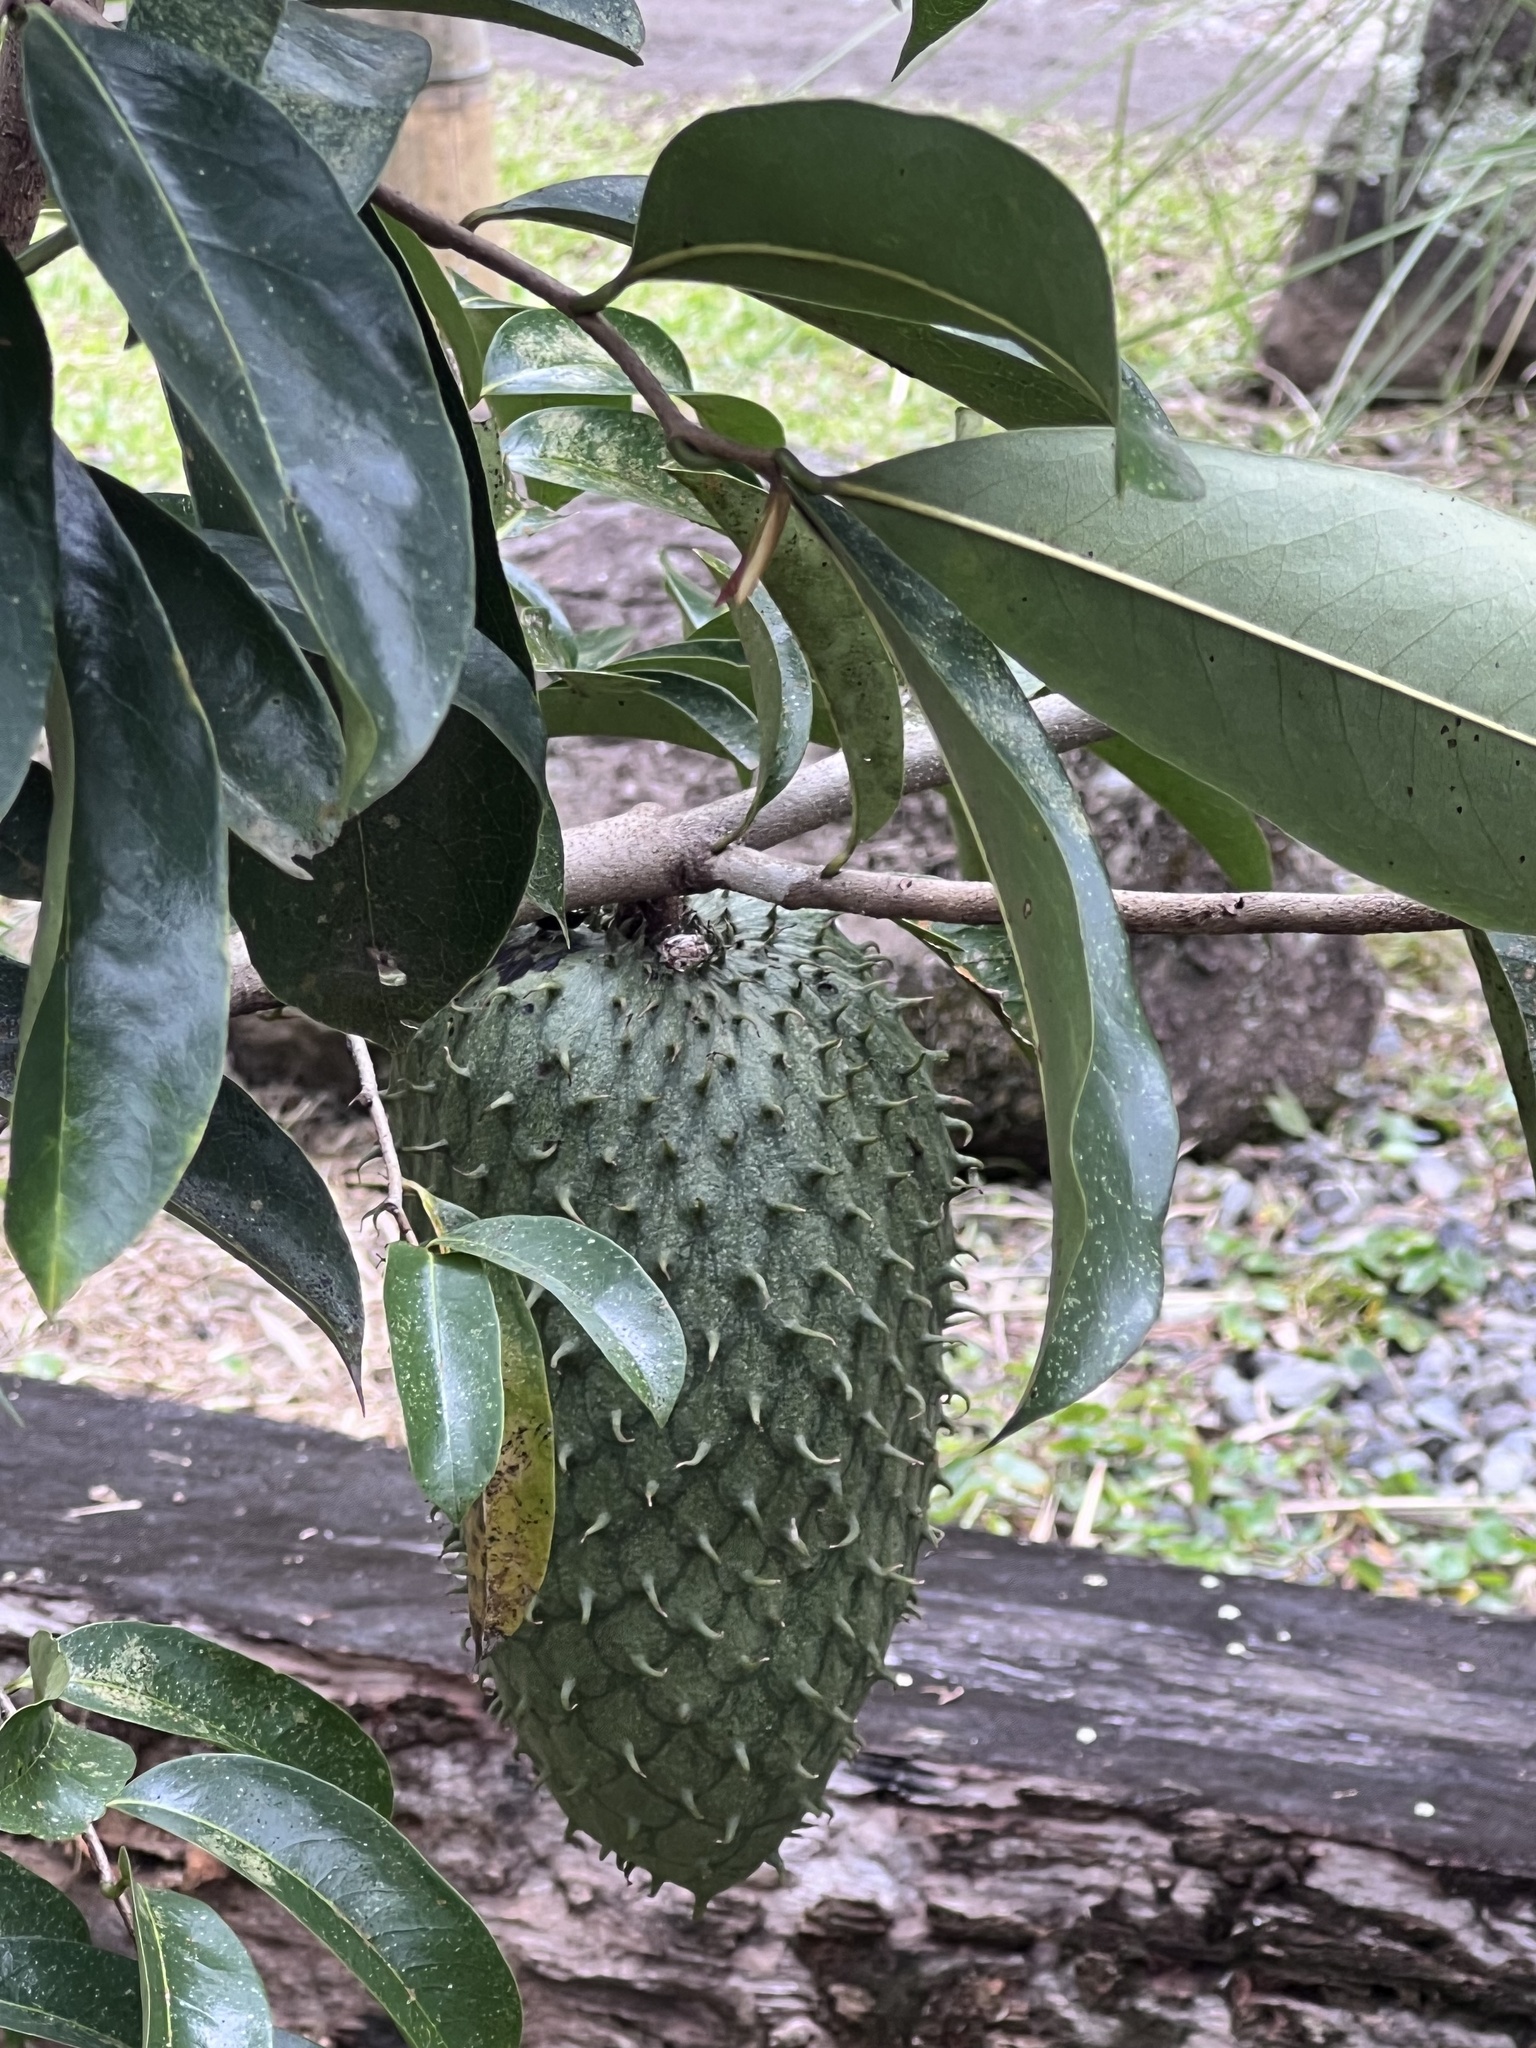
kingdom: Plantae
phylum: Tracheophyta
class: Magnoliopsida
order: Magnoliales
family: Annonaceae
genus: Annona
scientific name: Annona muricata
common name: Soursop
